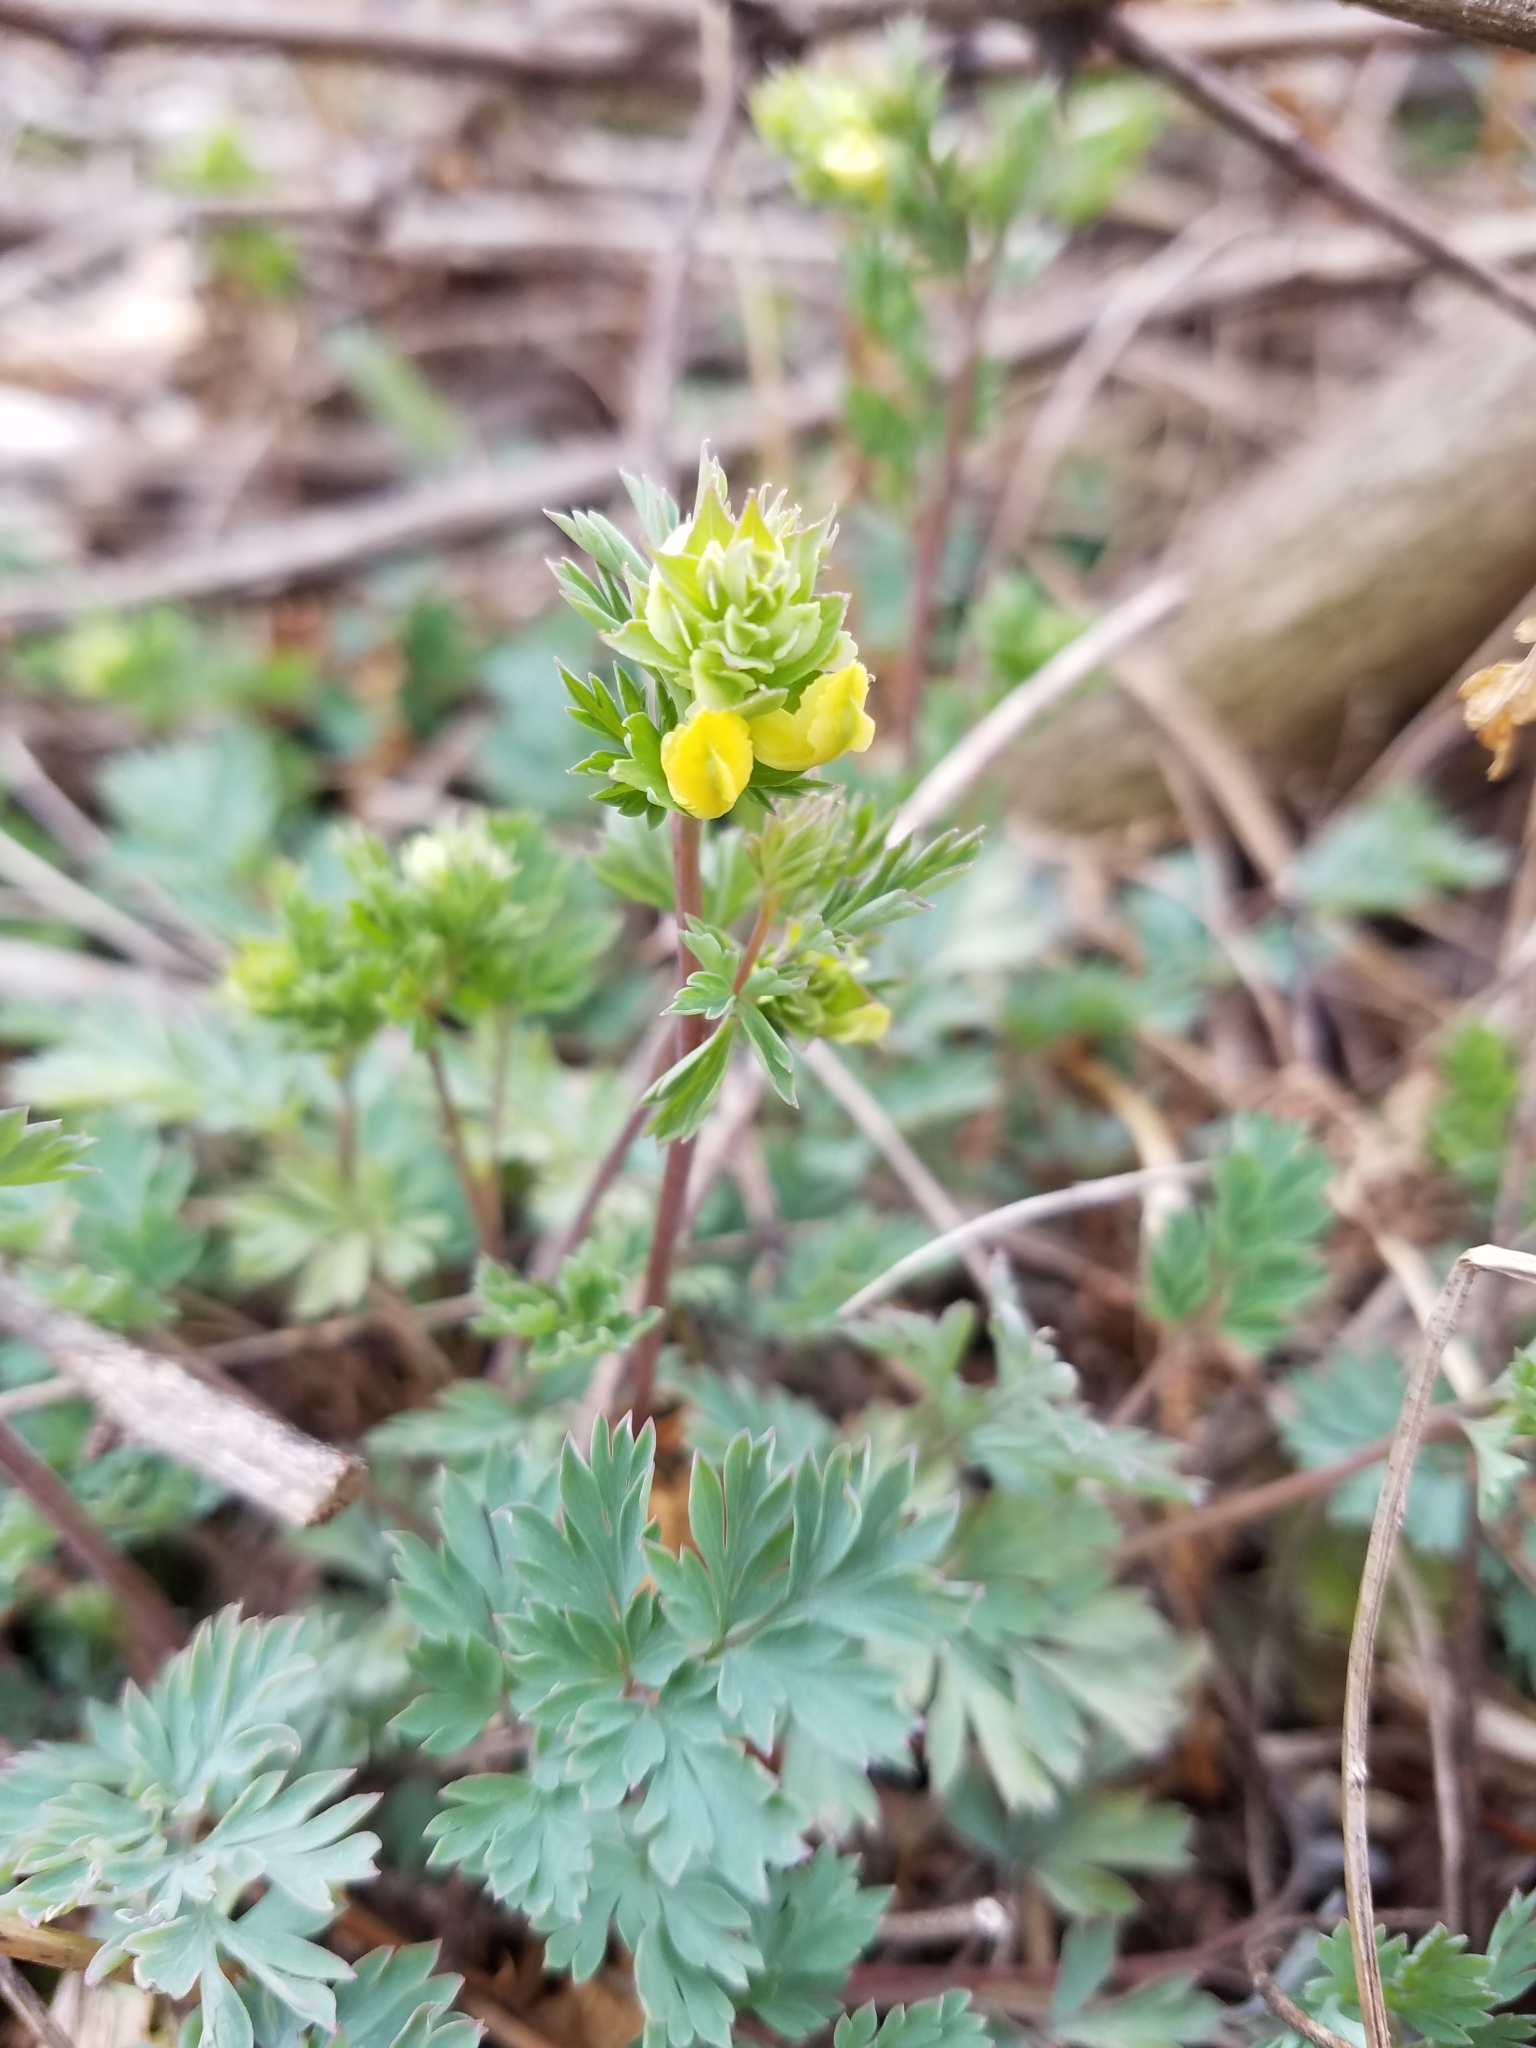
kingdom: Plantae
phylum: Tracheophyta
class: Magnoliopsida
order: Ranunculales
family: Papaveraceae
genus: Corydalis
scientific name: Corydalis flavula
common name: Yellow corydalis
